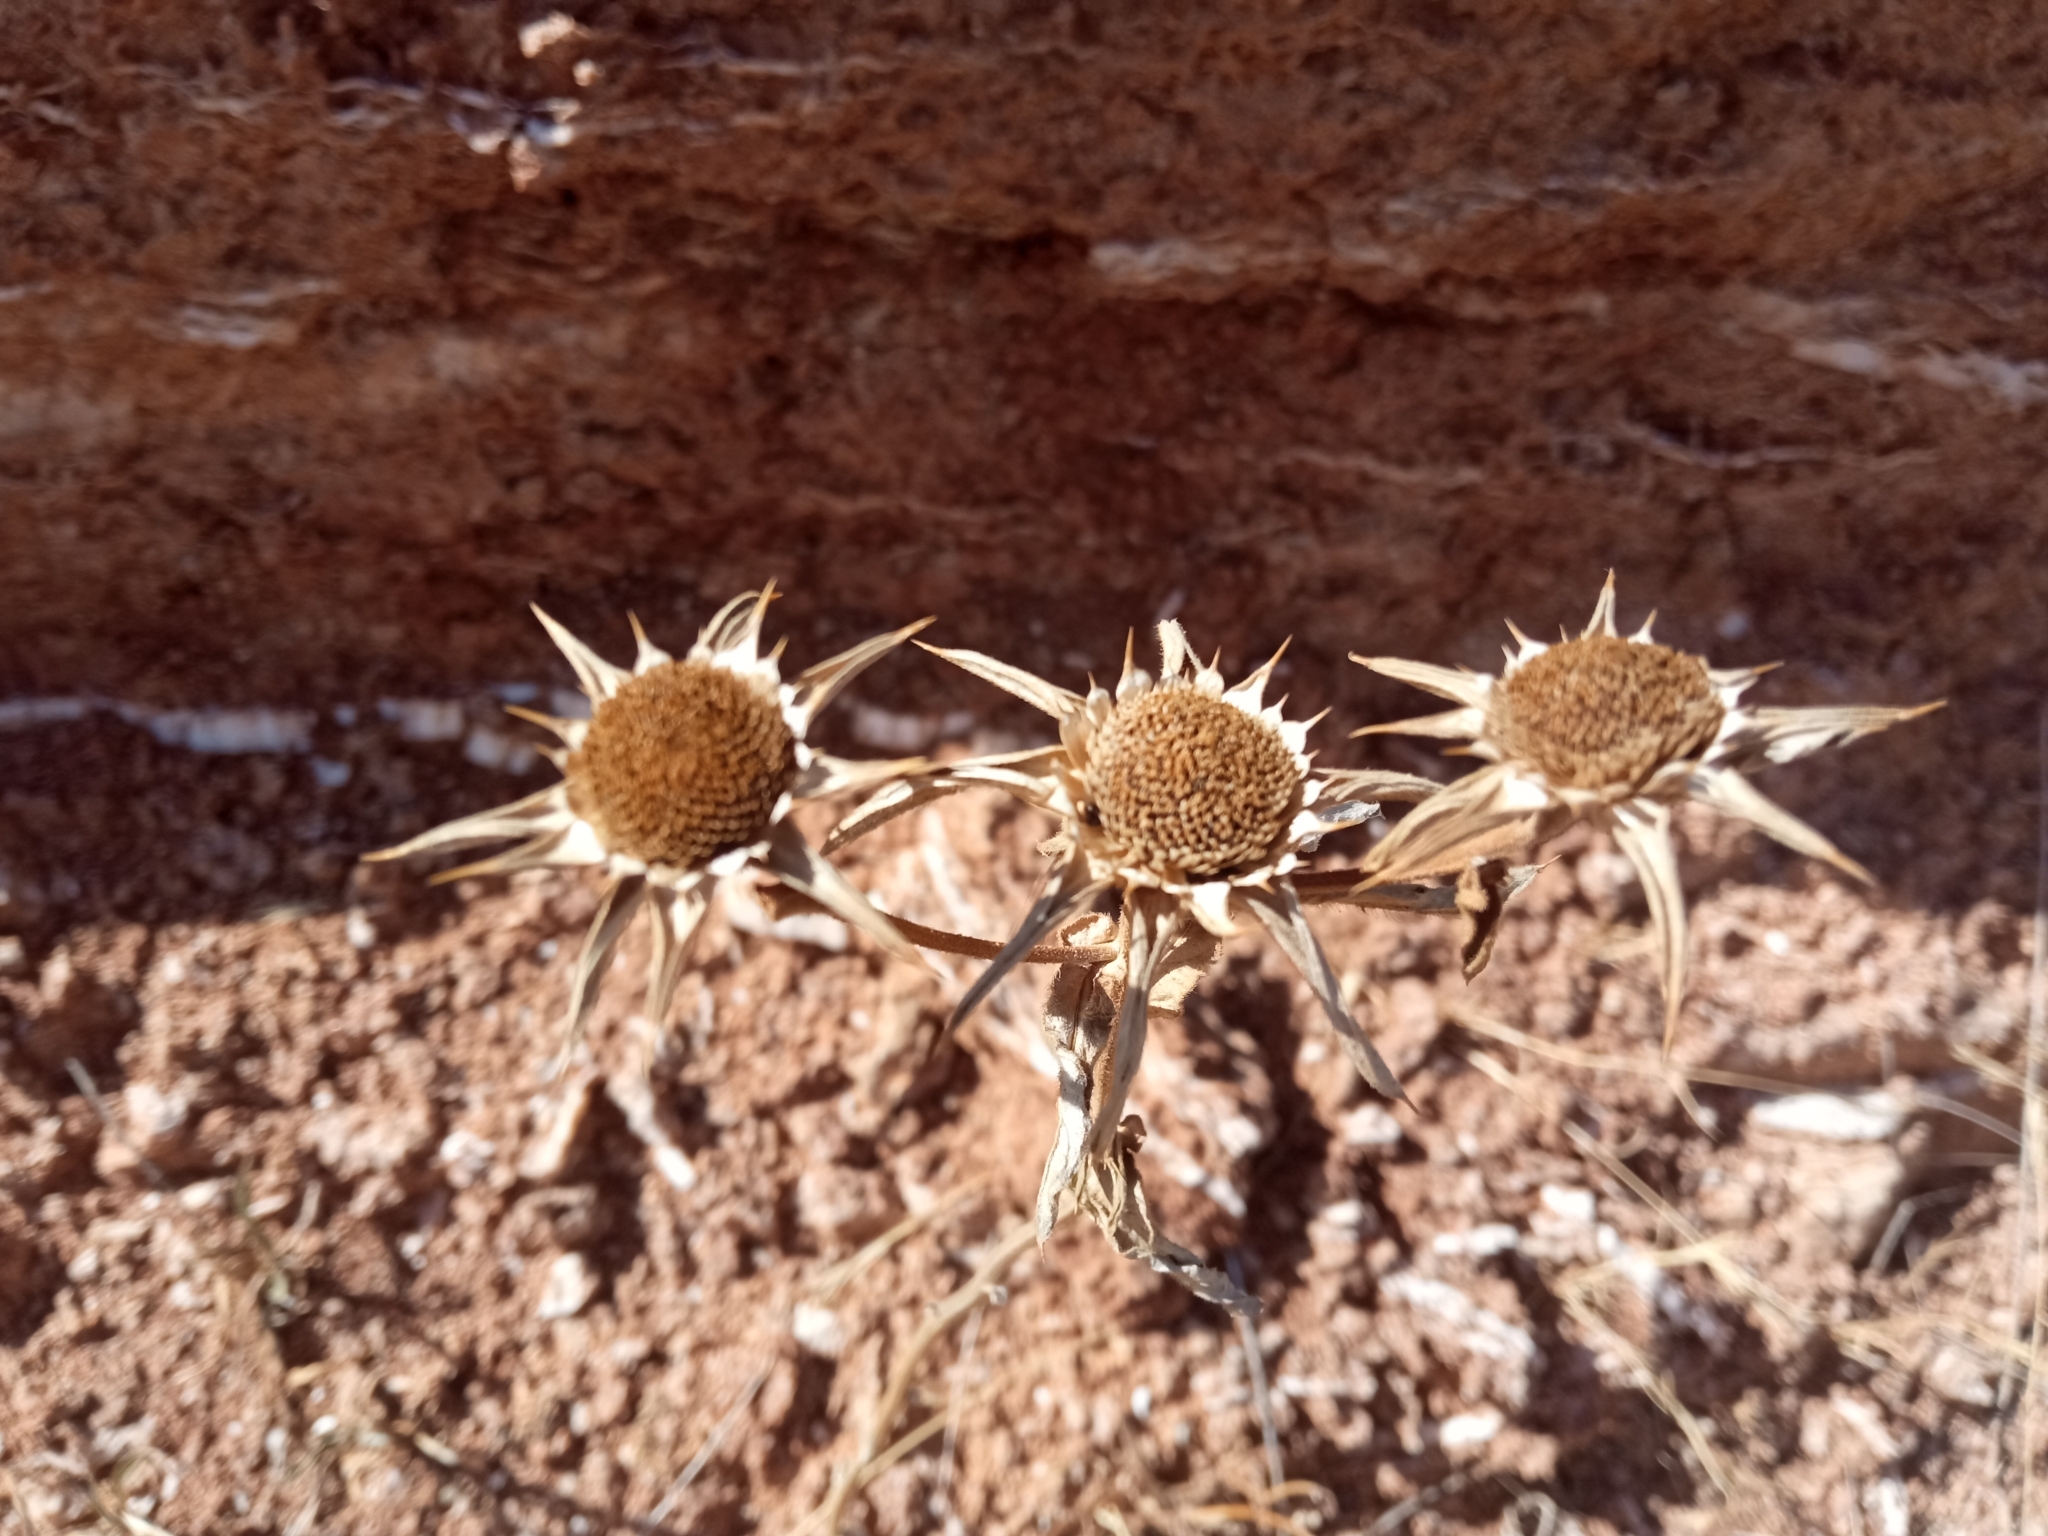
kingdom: Plantae
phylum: Tracheophyta
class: Magnoliopsida
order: Asterales
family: Asteraceae
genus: Pallenis
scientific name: Pallenis spinosa
